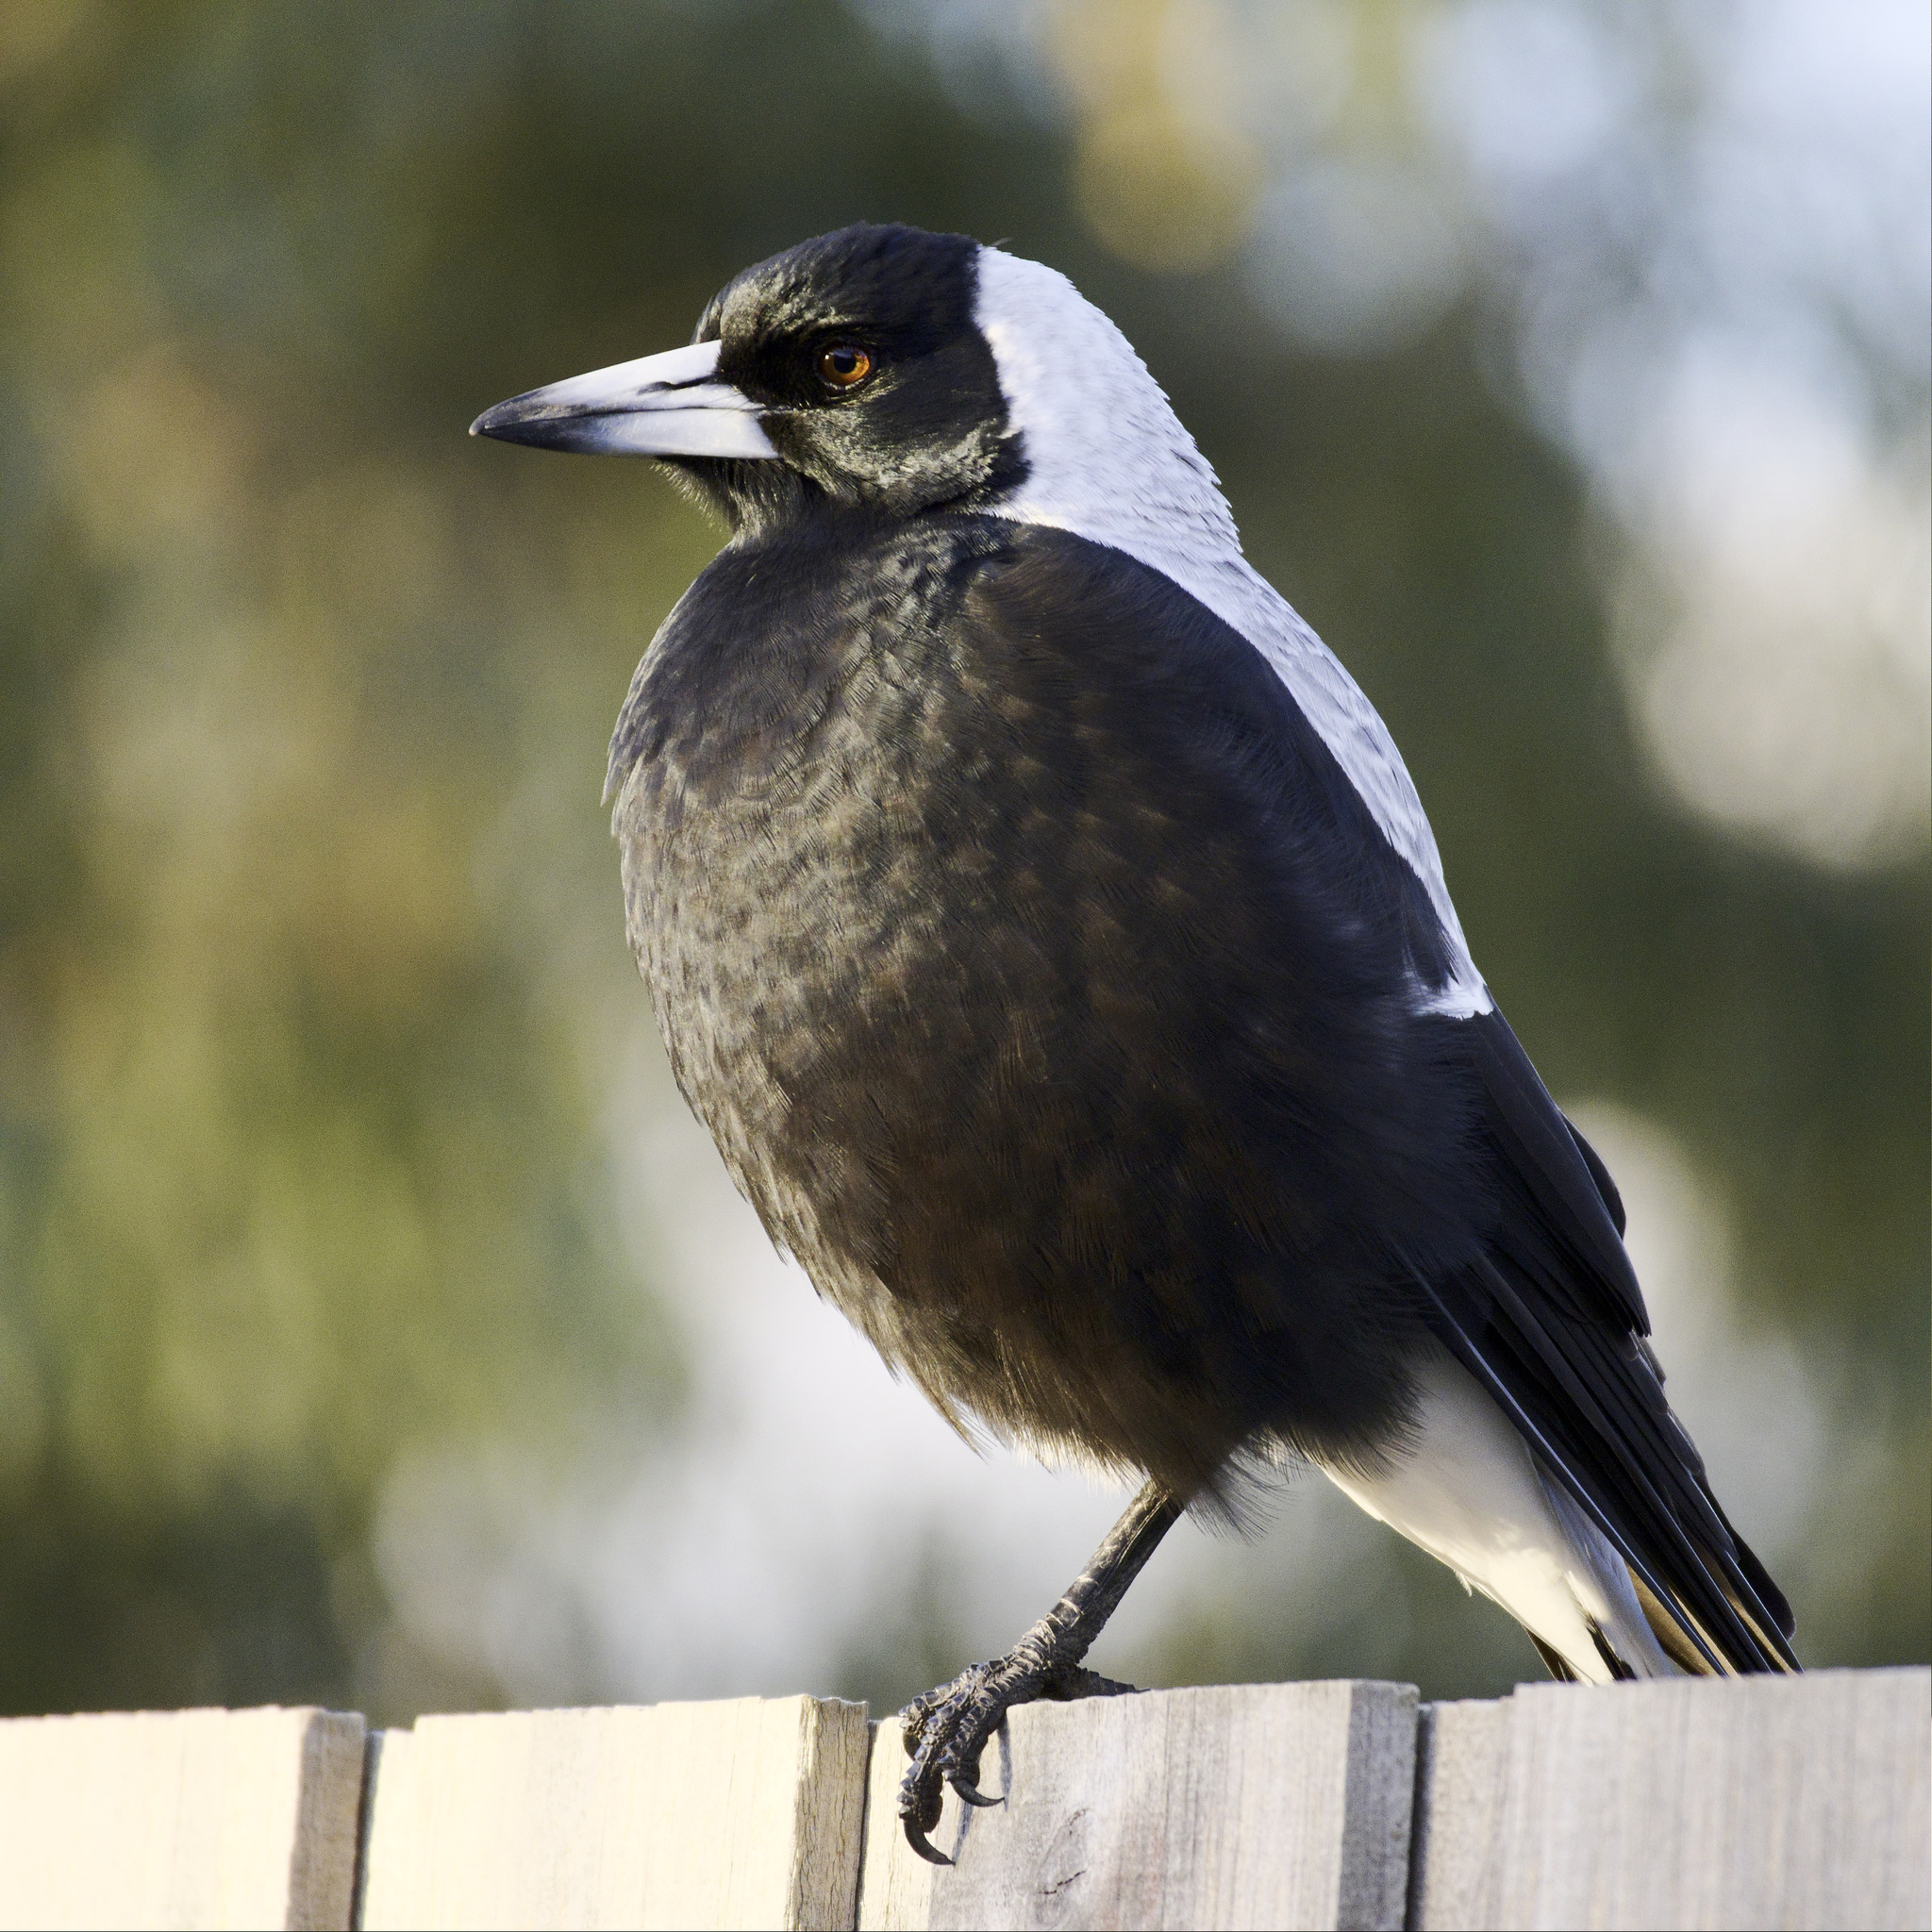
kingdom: Animalia
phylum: Chordata
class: Aves
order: Passeriformes
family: Cracticidae
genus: Gymnorhina
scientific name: Gymnorhina tibicen
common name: Australian magpie
